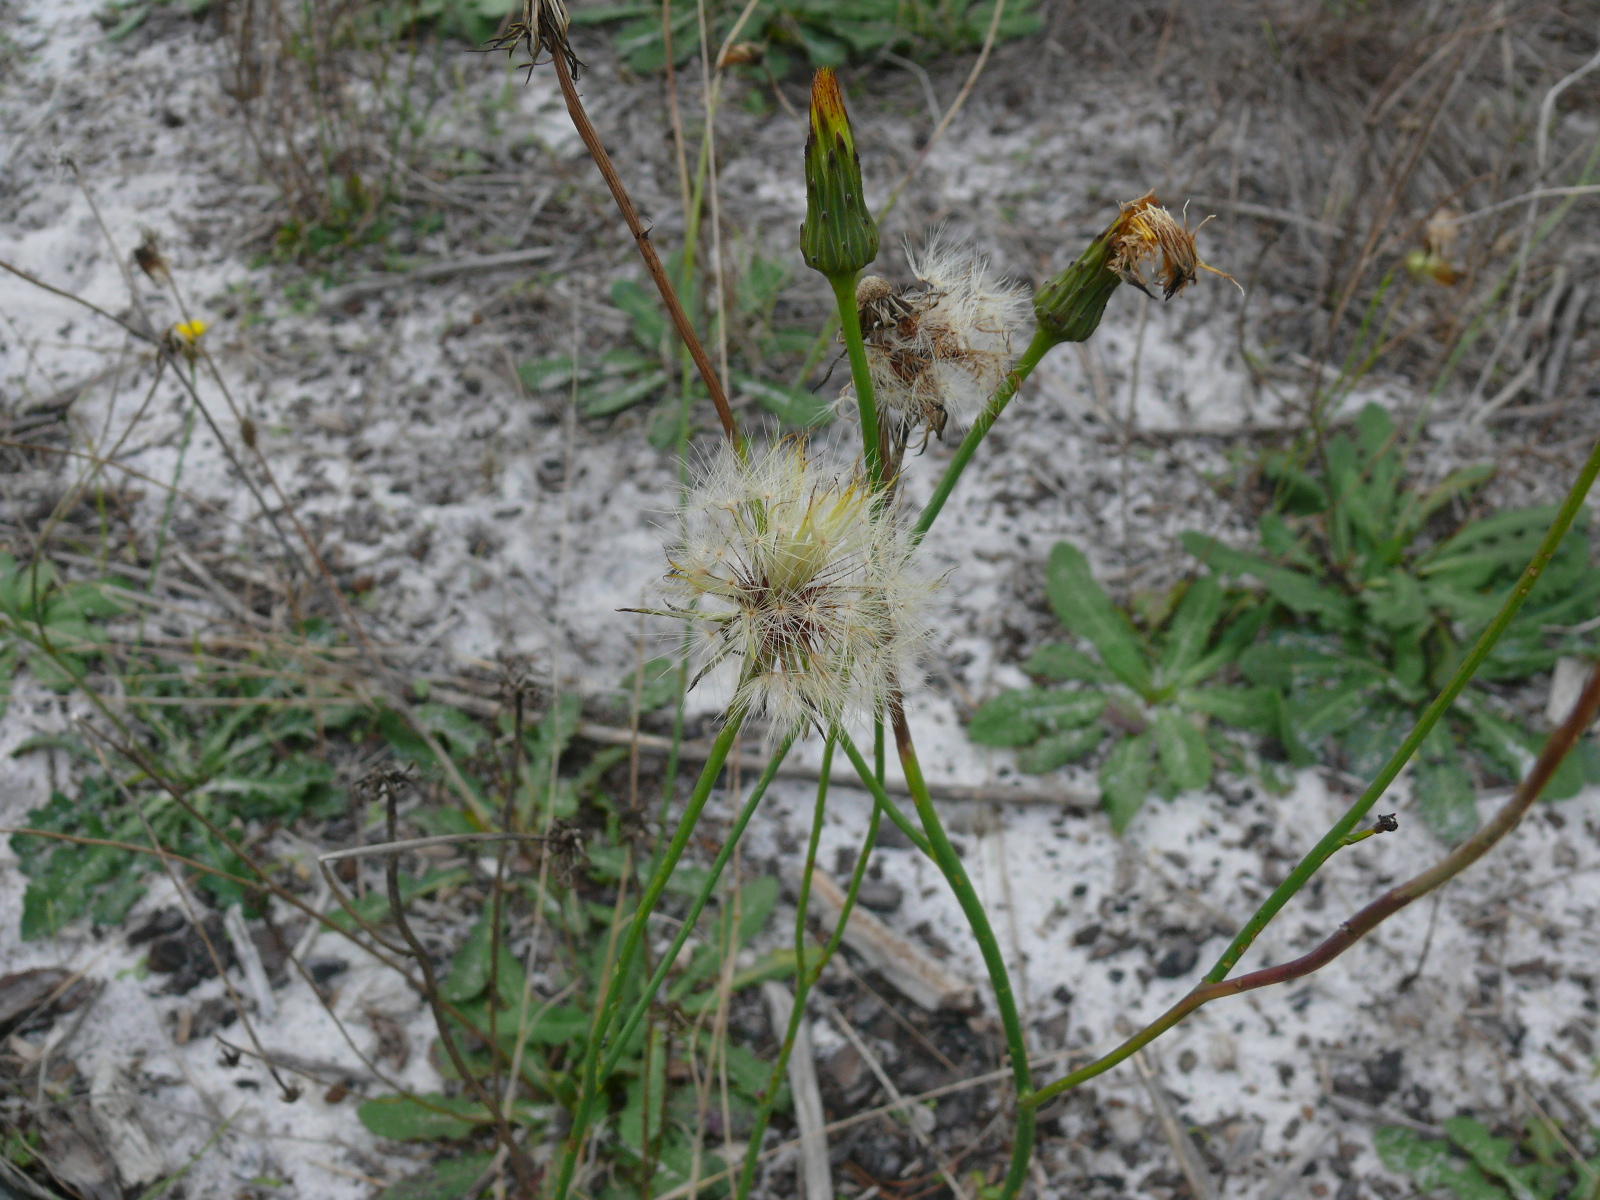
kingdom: Plantae
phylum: Tracheophyta
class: Magnoliopsida
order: Asterales
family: Asteraceae
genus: Hypochaeris
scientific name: Hypochaeris radicata
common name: Flatweed
